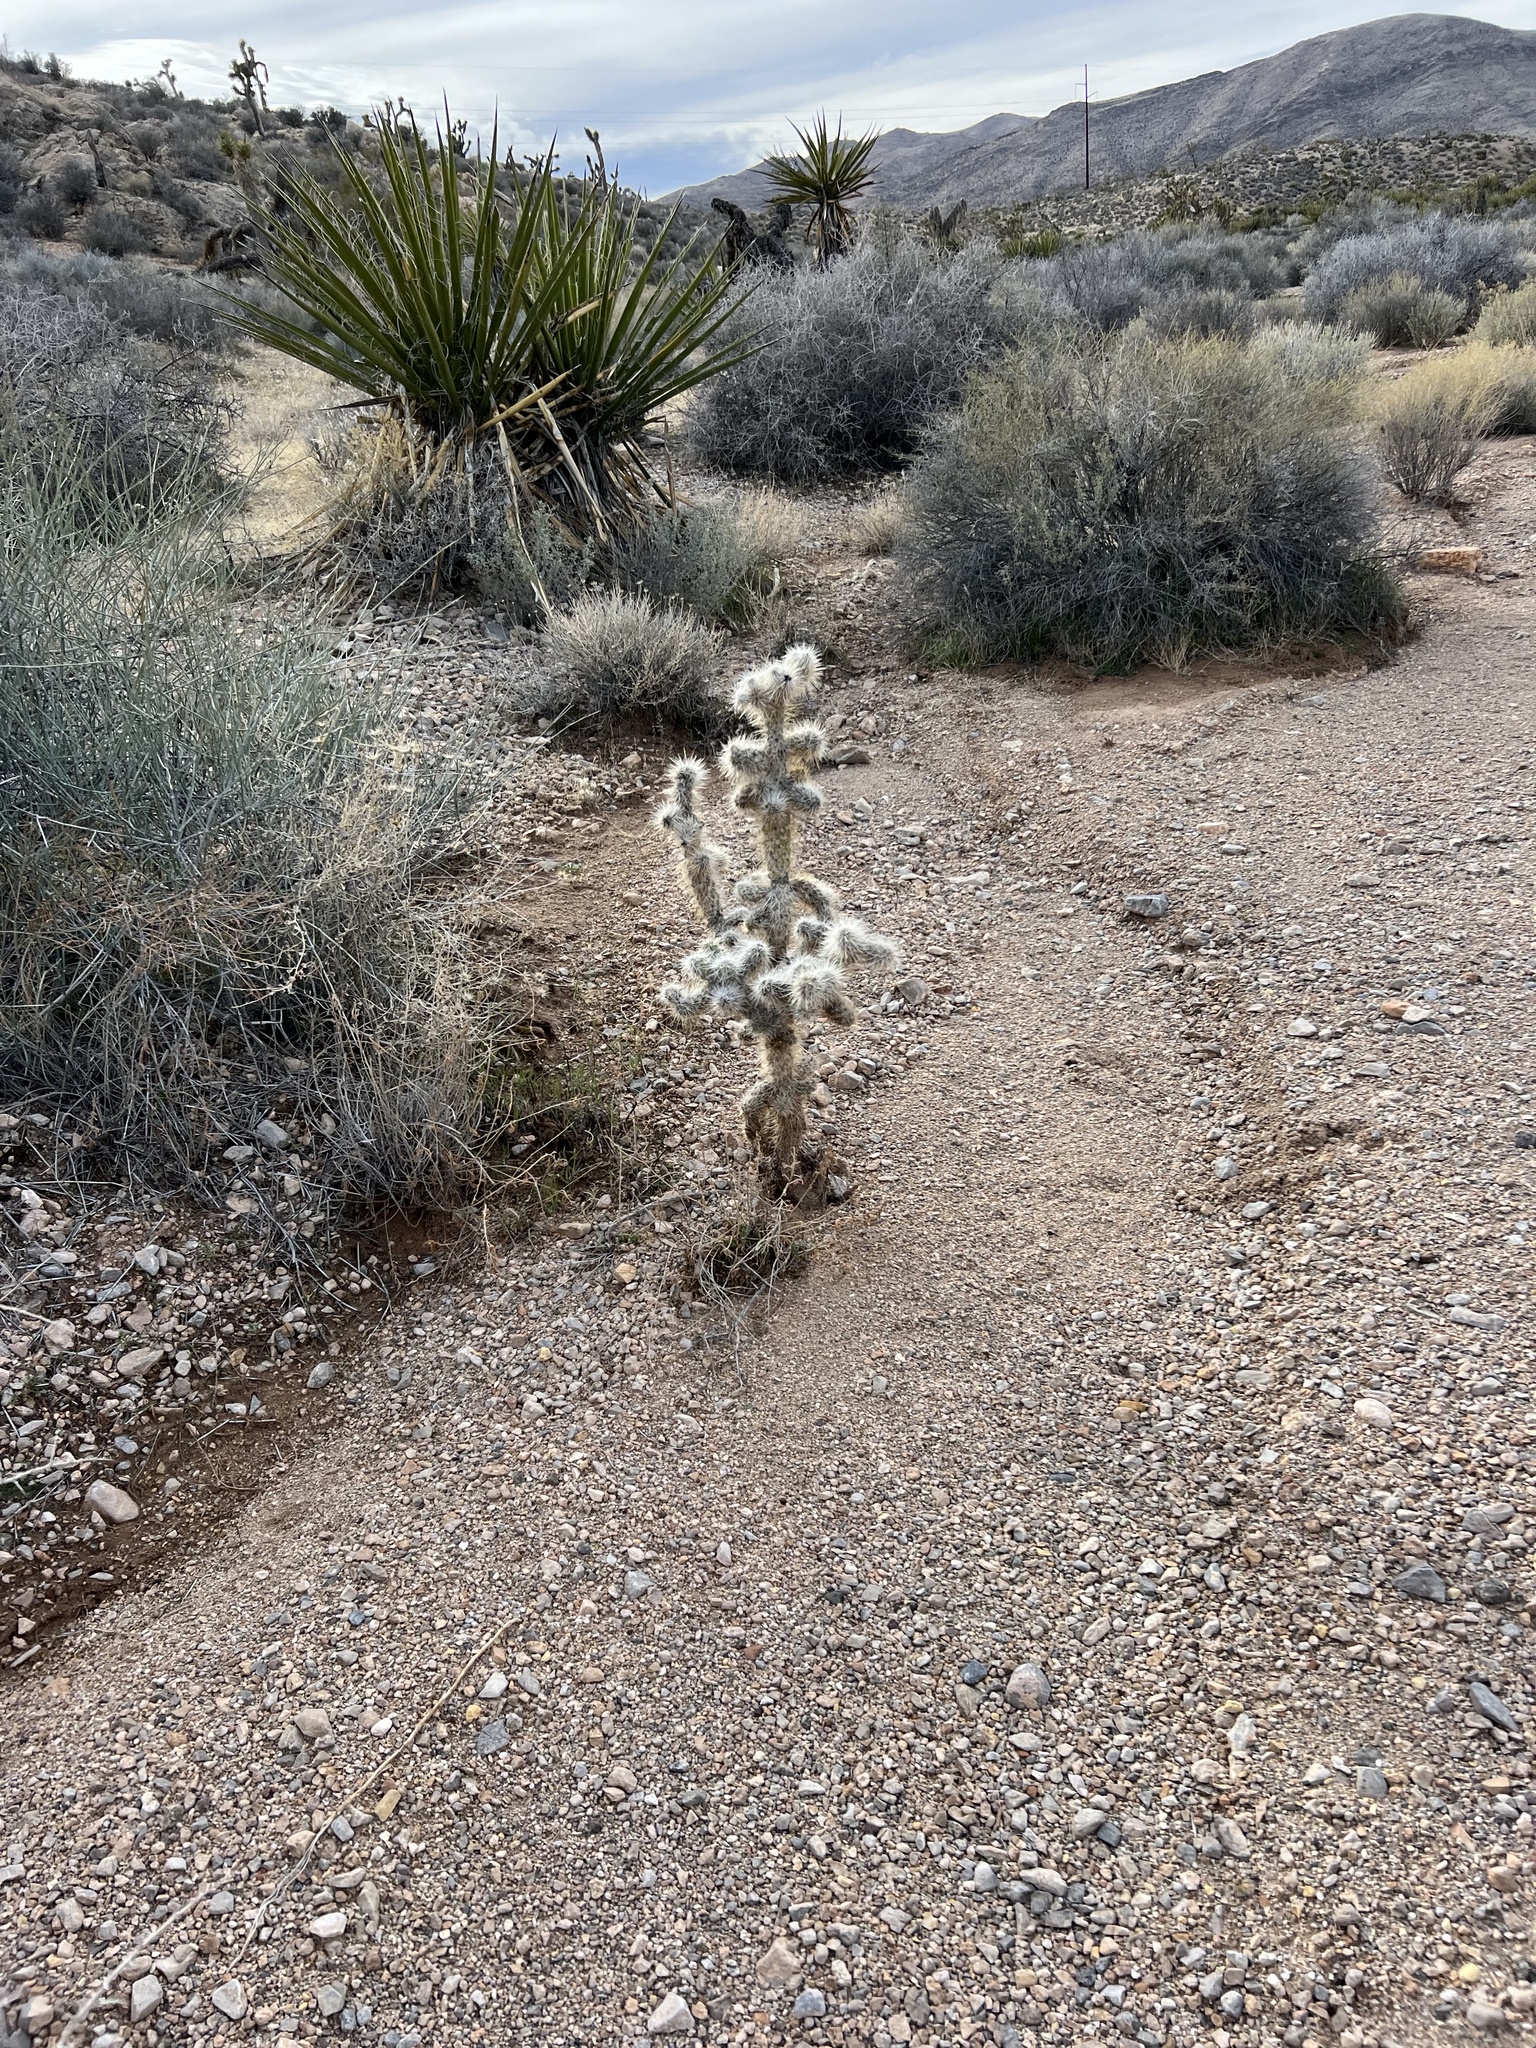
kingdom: Plantae
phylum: Tracheophyta
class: Magnoliopsida
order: Caryophyllales
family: Cactaceae
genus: Cylindropuntia
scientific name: Cylindropuntia echinocarpa
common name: Ground cholla
